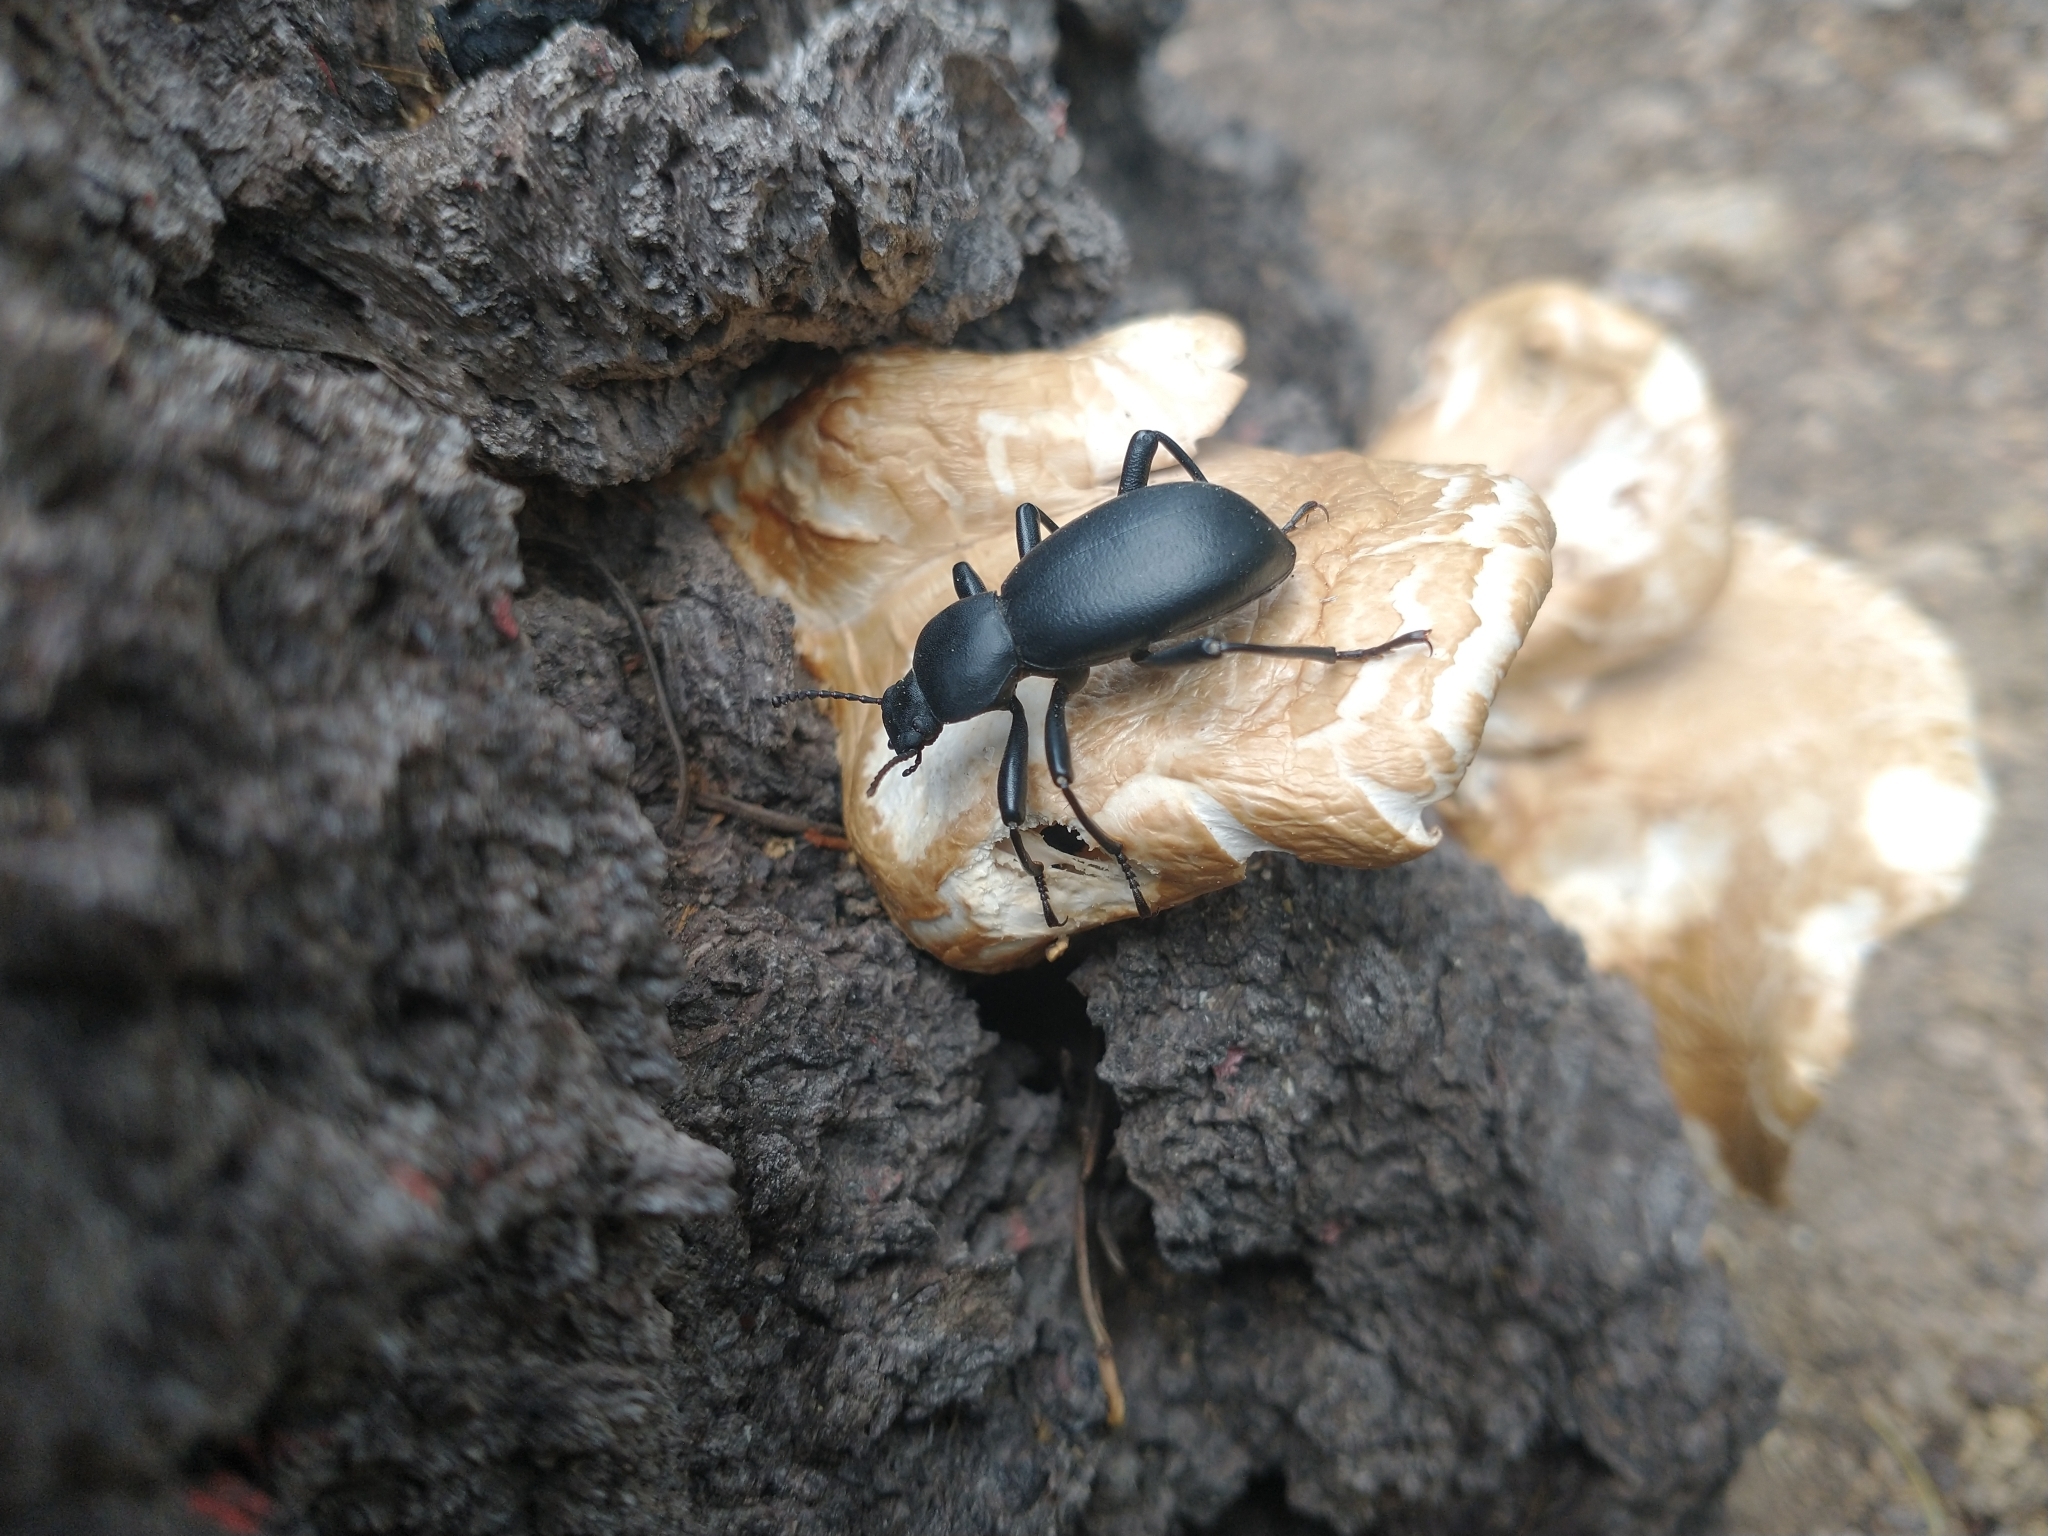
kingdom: Animalia
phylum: Arthropoda
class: Insecta
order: Coleoptera
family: Tenebrionidae
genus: Coelocnemis
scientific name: Coelocnemis dilaticollis
